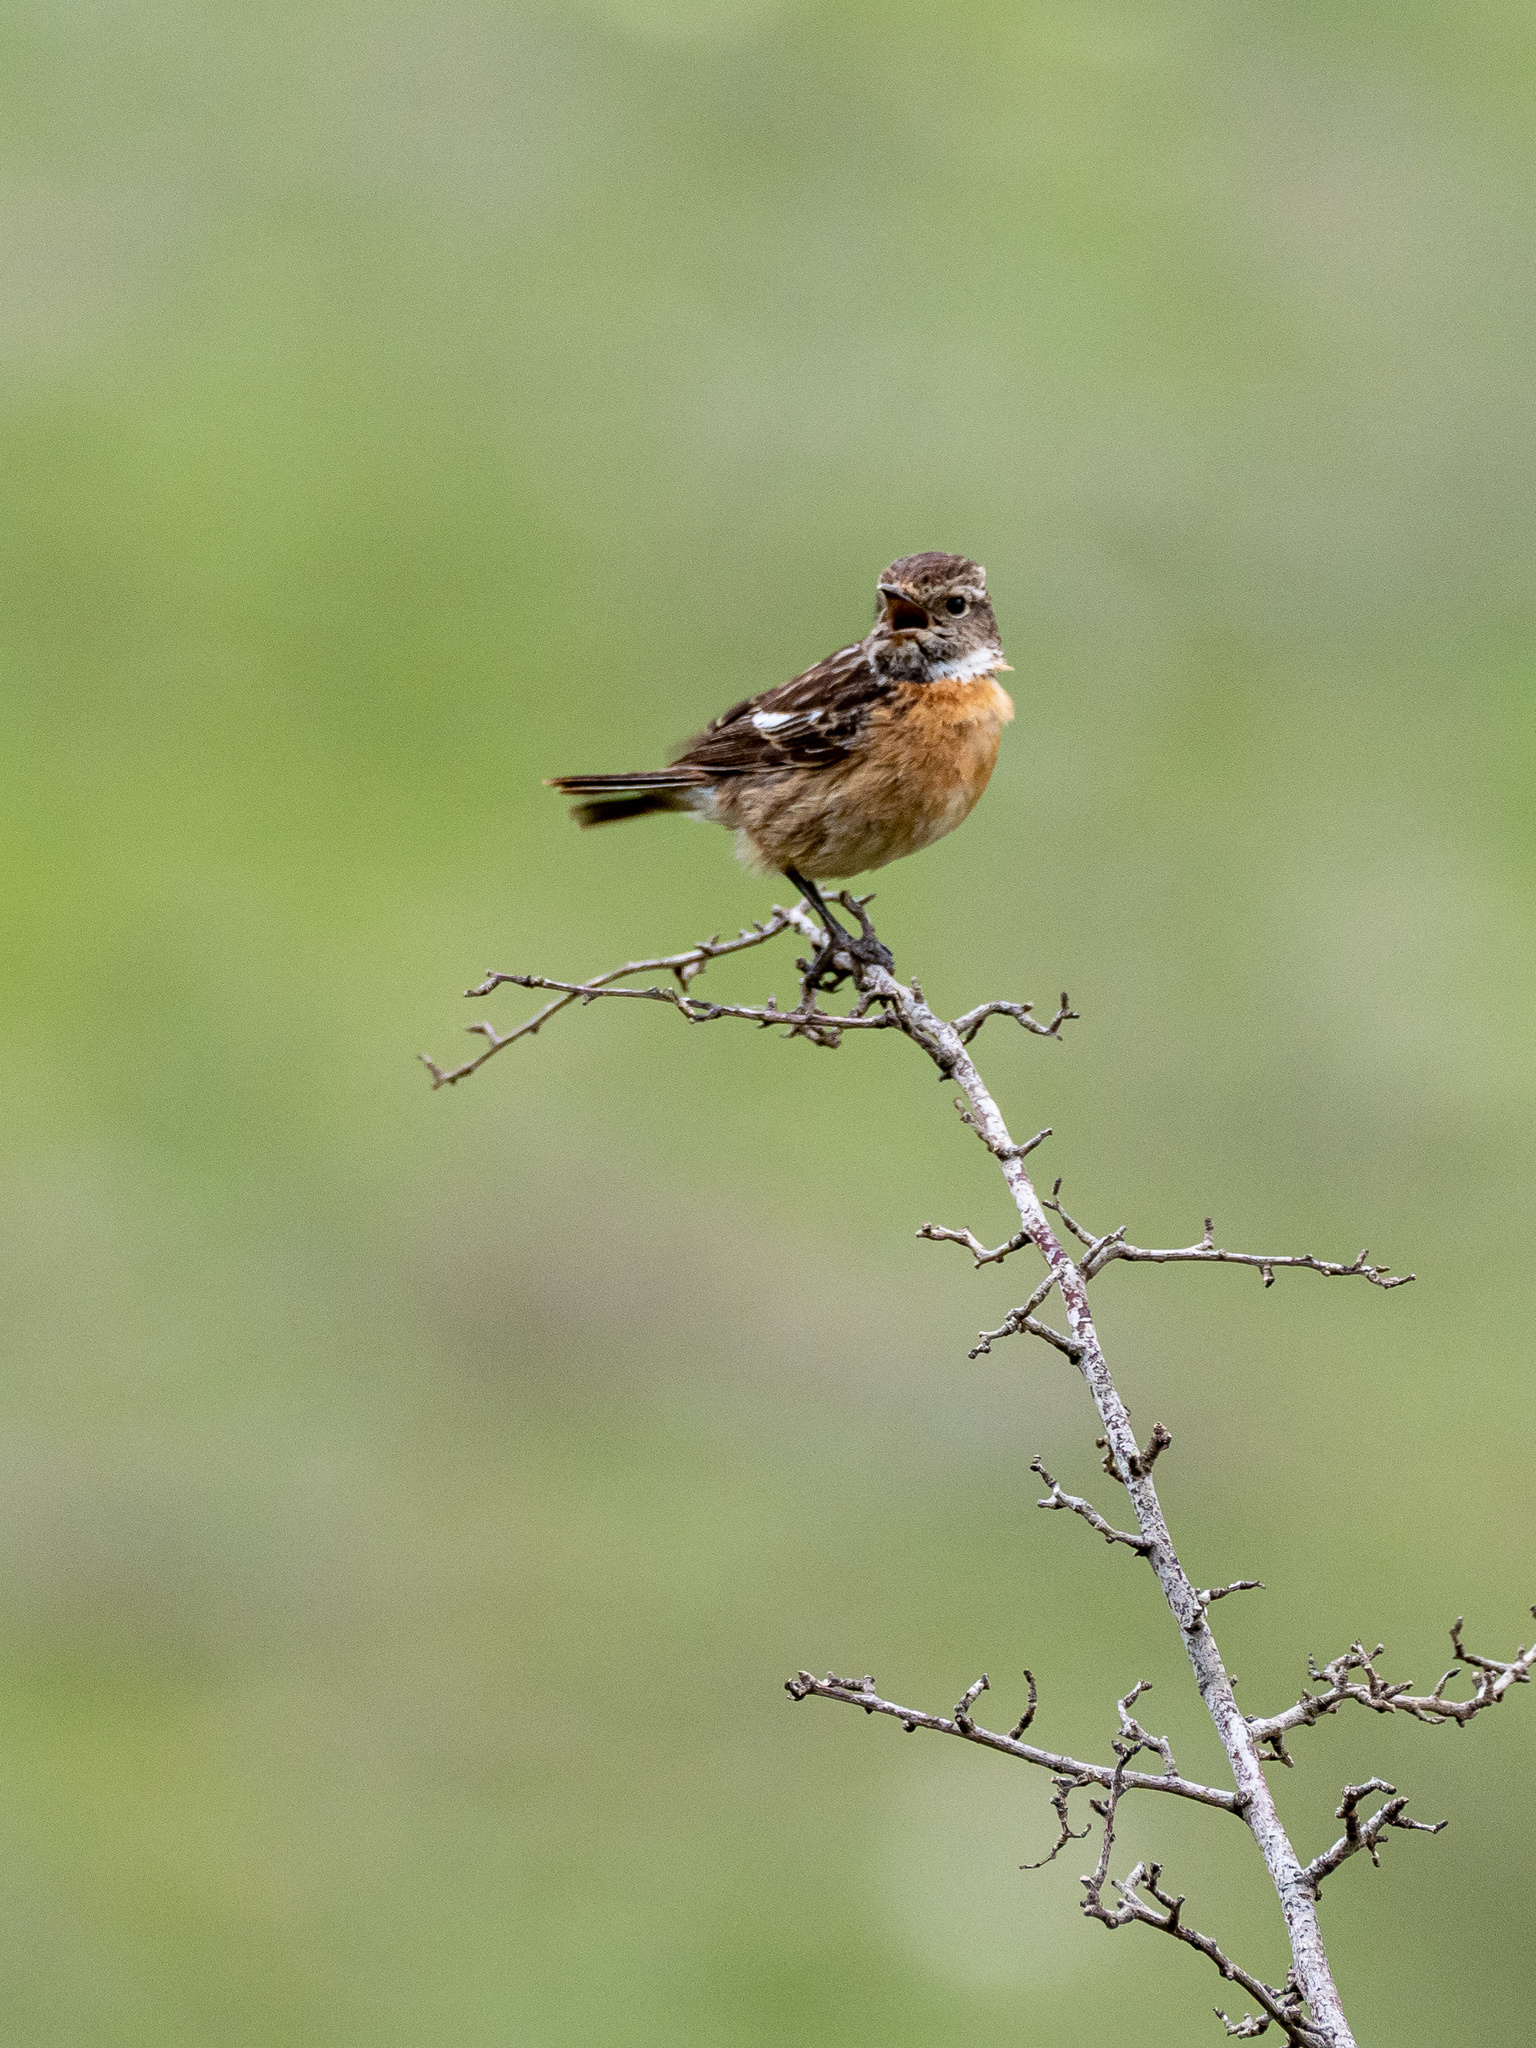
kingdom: Animalia
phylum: Chordata
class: Aves
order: Passeriformes
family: Muscicapidae
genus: Saxicola
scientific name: Saxicola rubicola
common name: European stonechat
